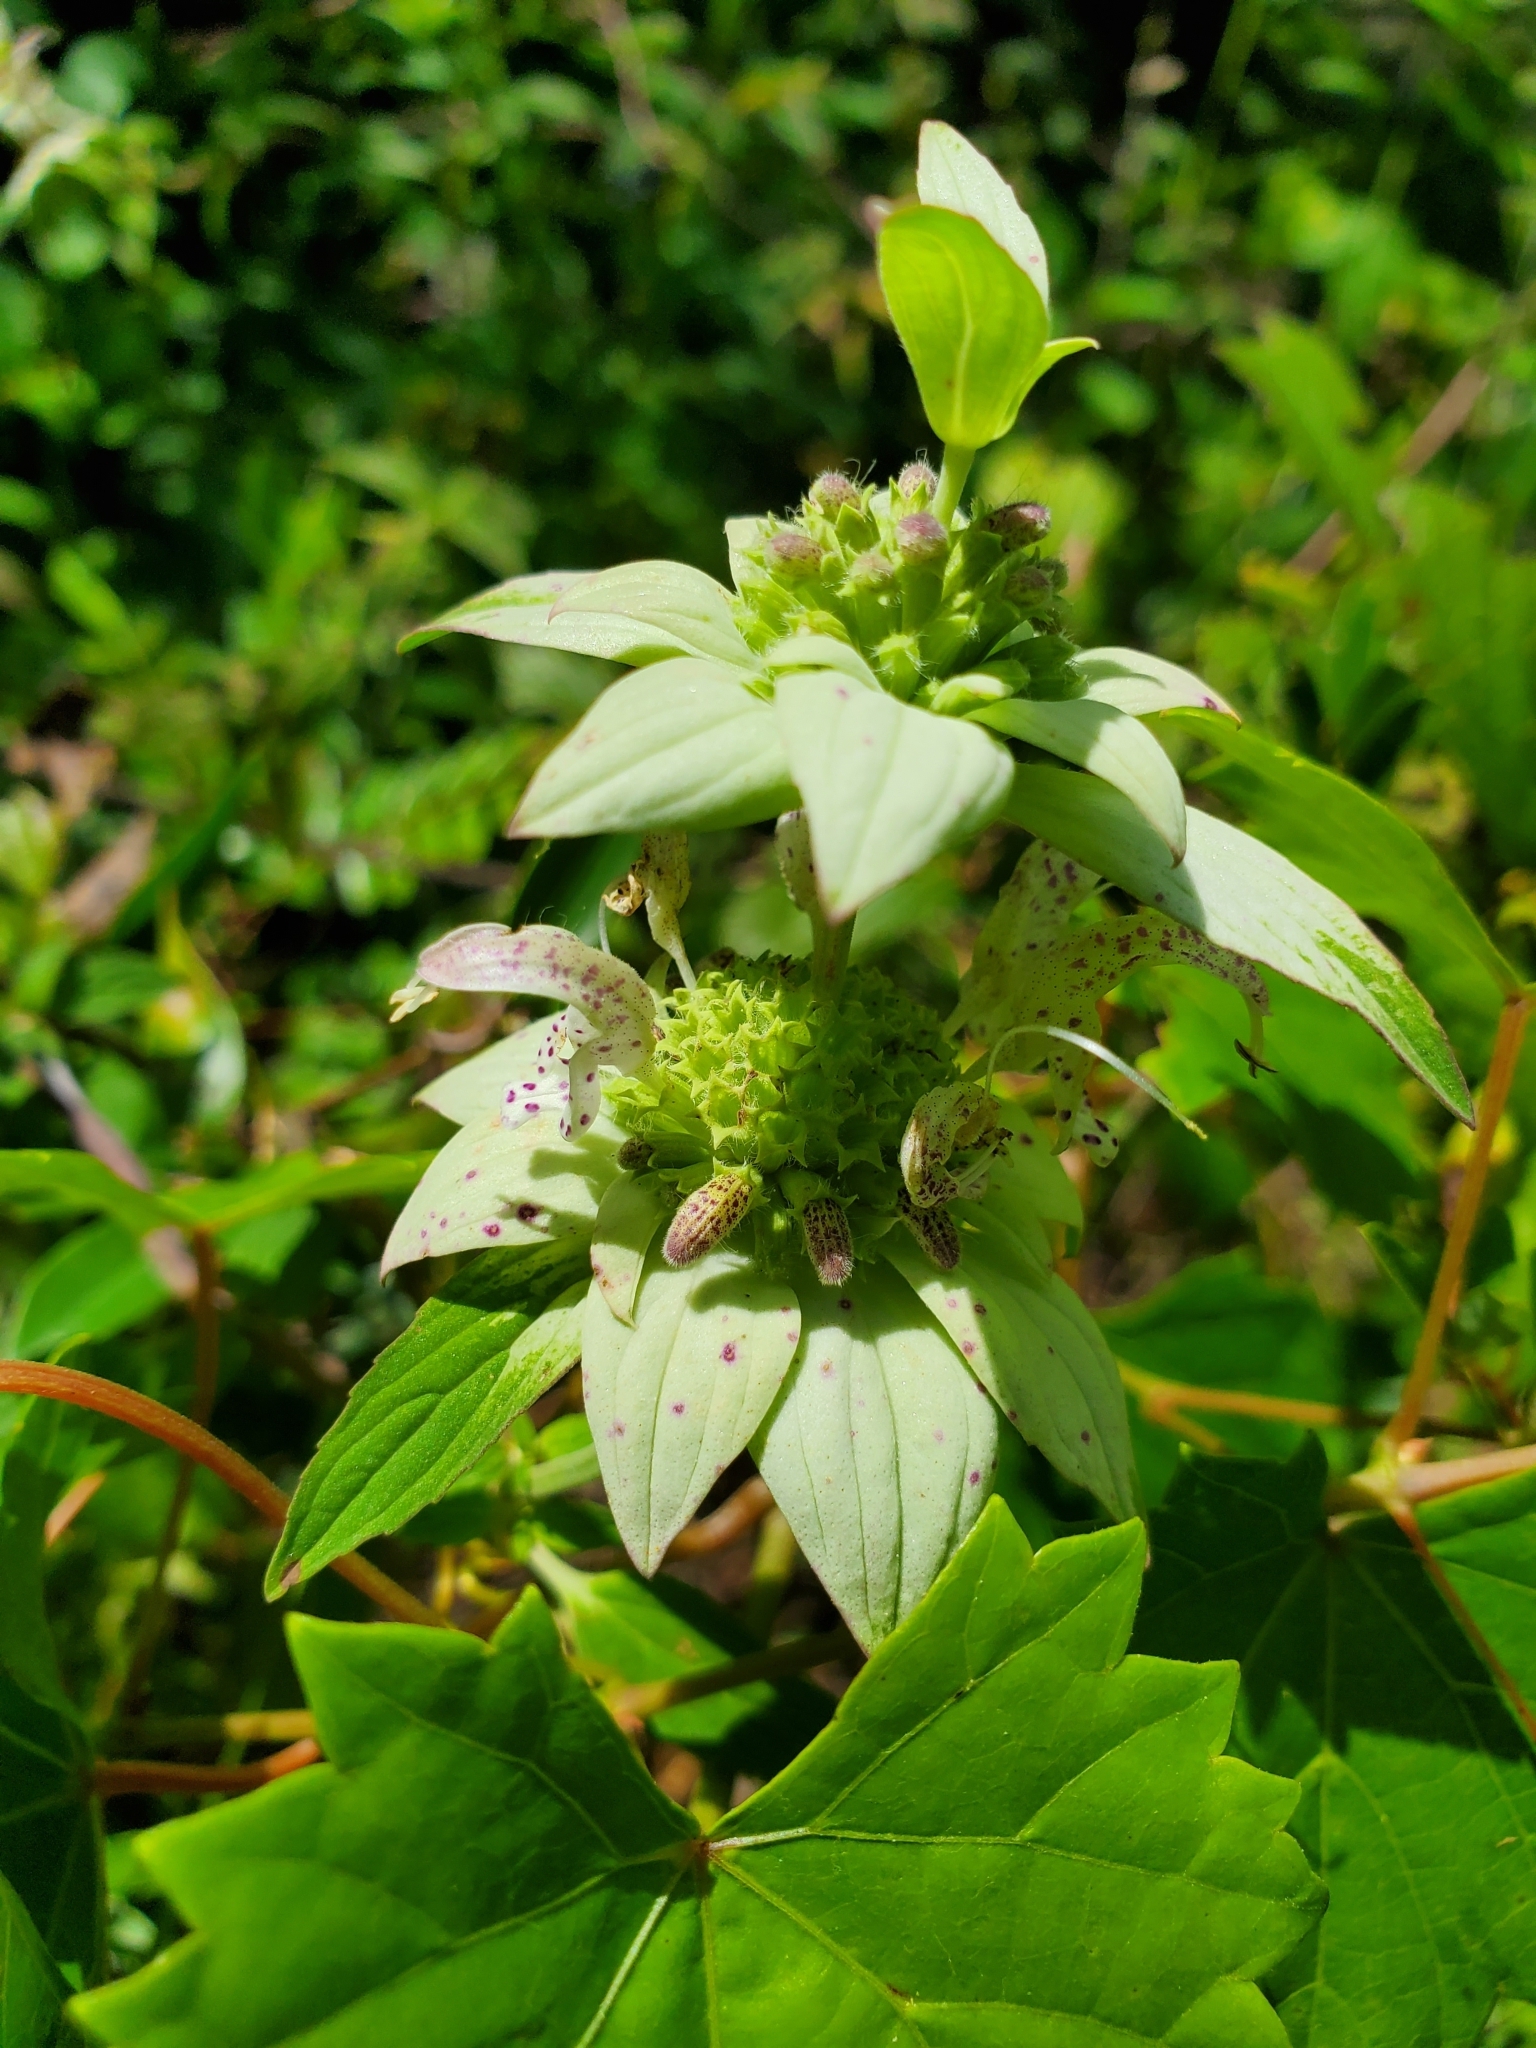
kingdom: Plantae
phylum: Tracheophyta
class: Magnoliopsida
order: Lamiales
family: Lamiaceae
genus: Monarda
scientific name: Monarda punctata
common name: Dotted monarda
